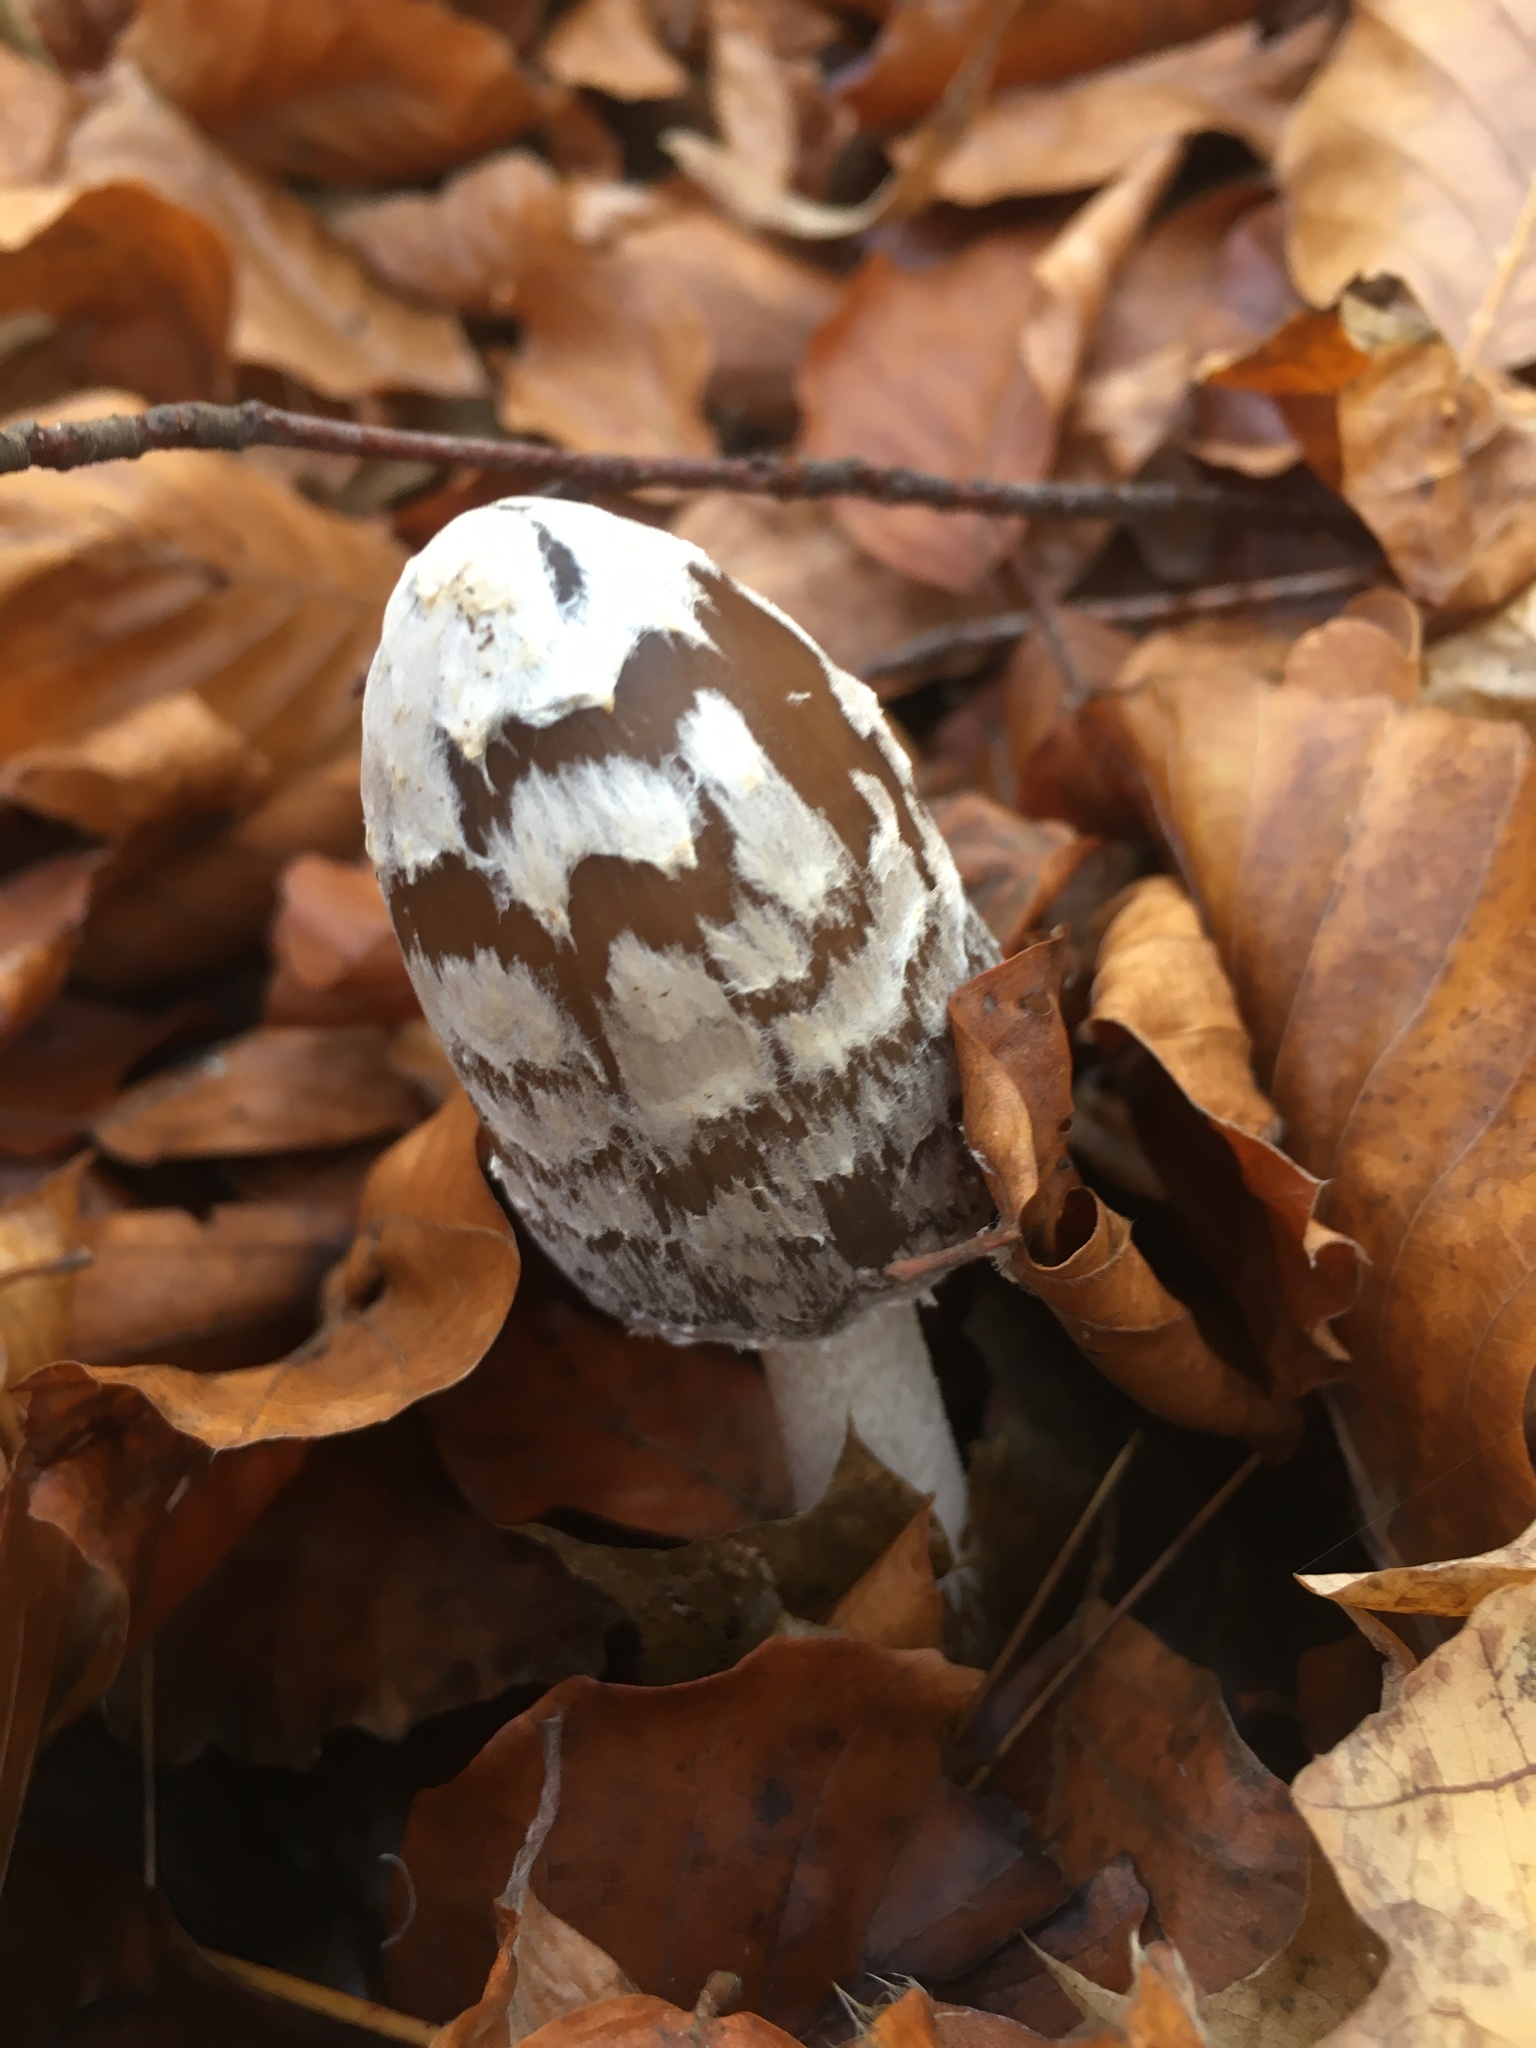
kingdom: Fungi
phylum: Basidiomycota
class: Agaricomycetes
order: Agaricales
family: Psathyrellaceae
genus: Coprinopsis
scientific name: Coprinopsis picacea
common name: Magpie inkcap
